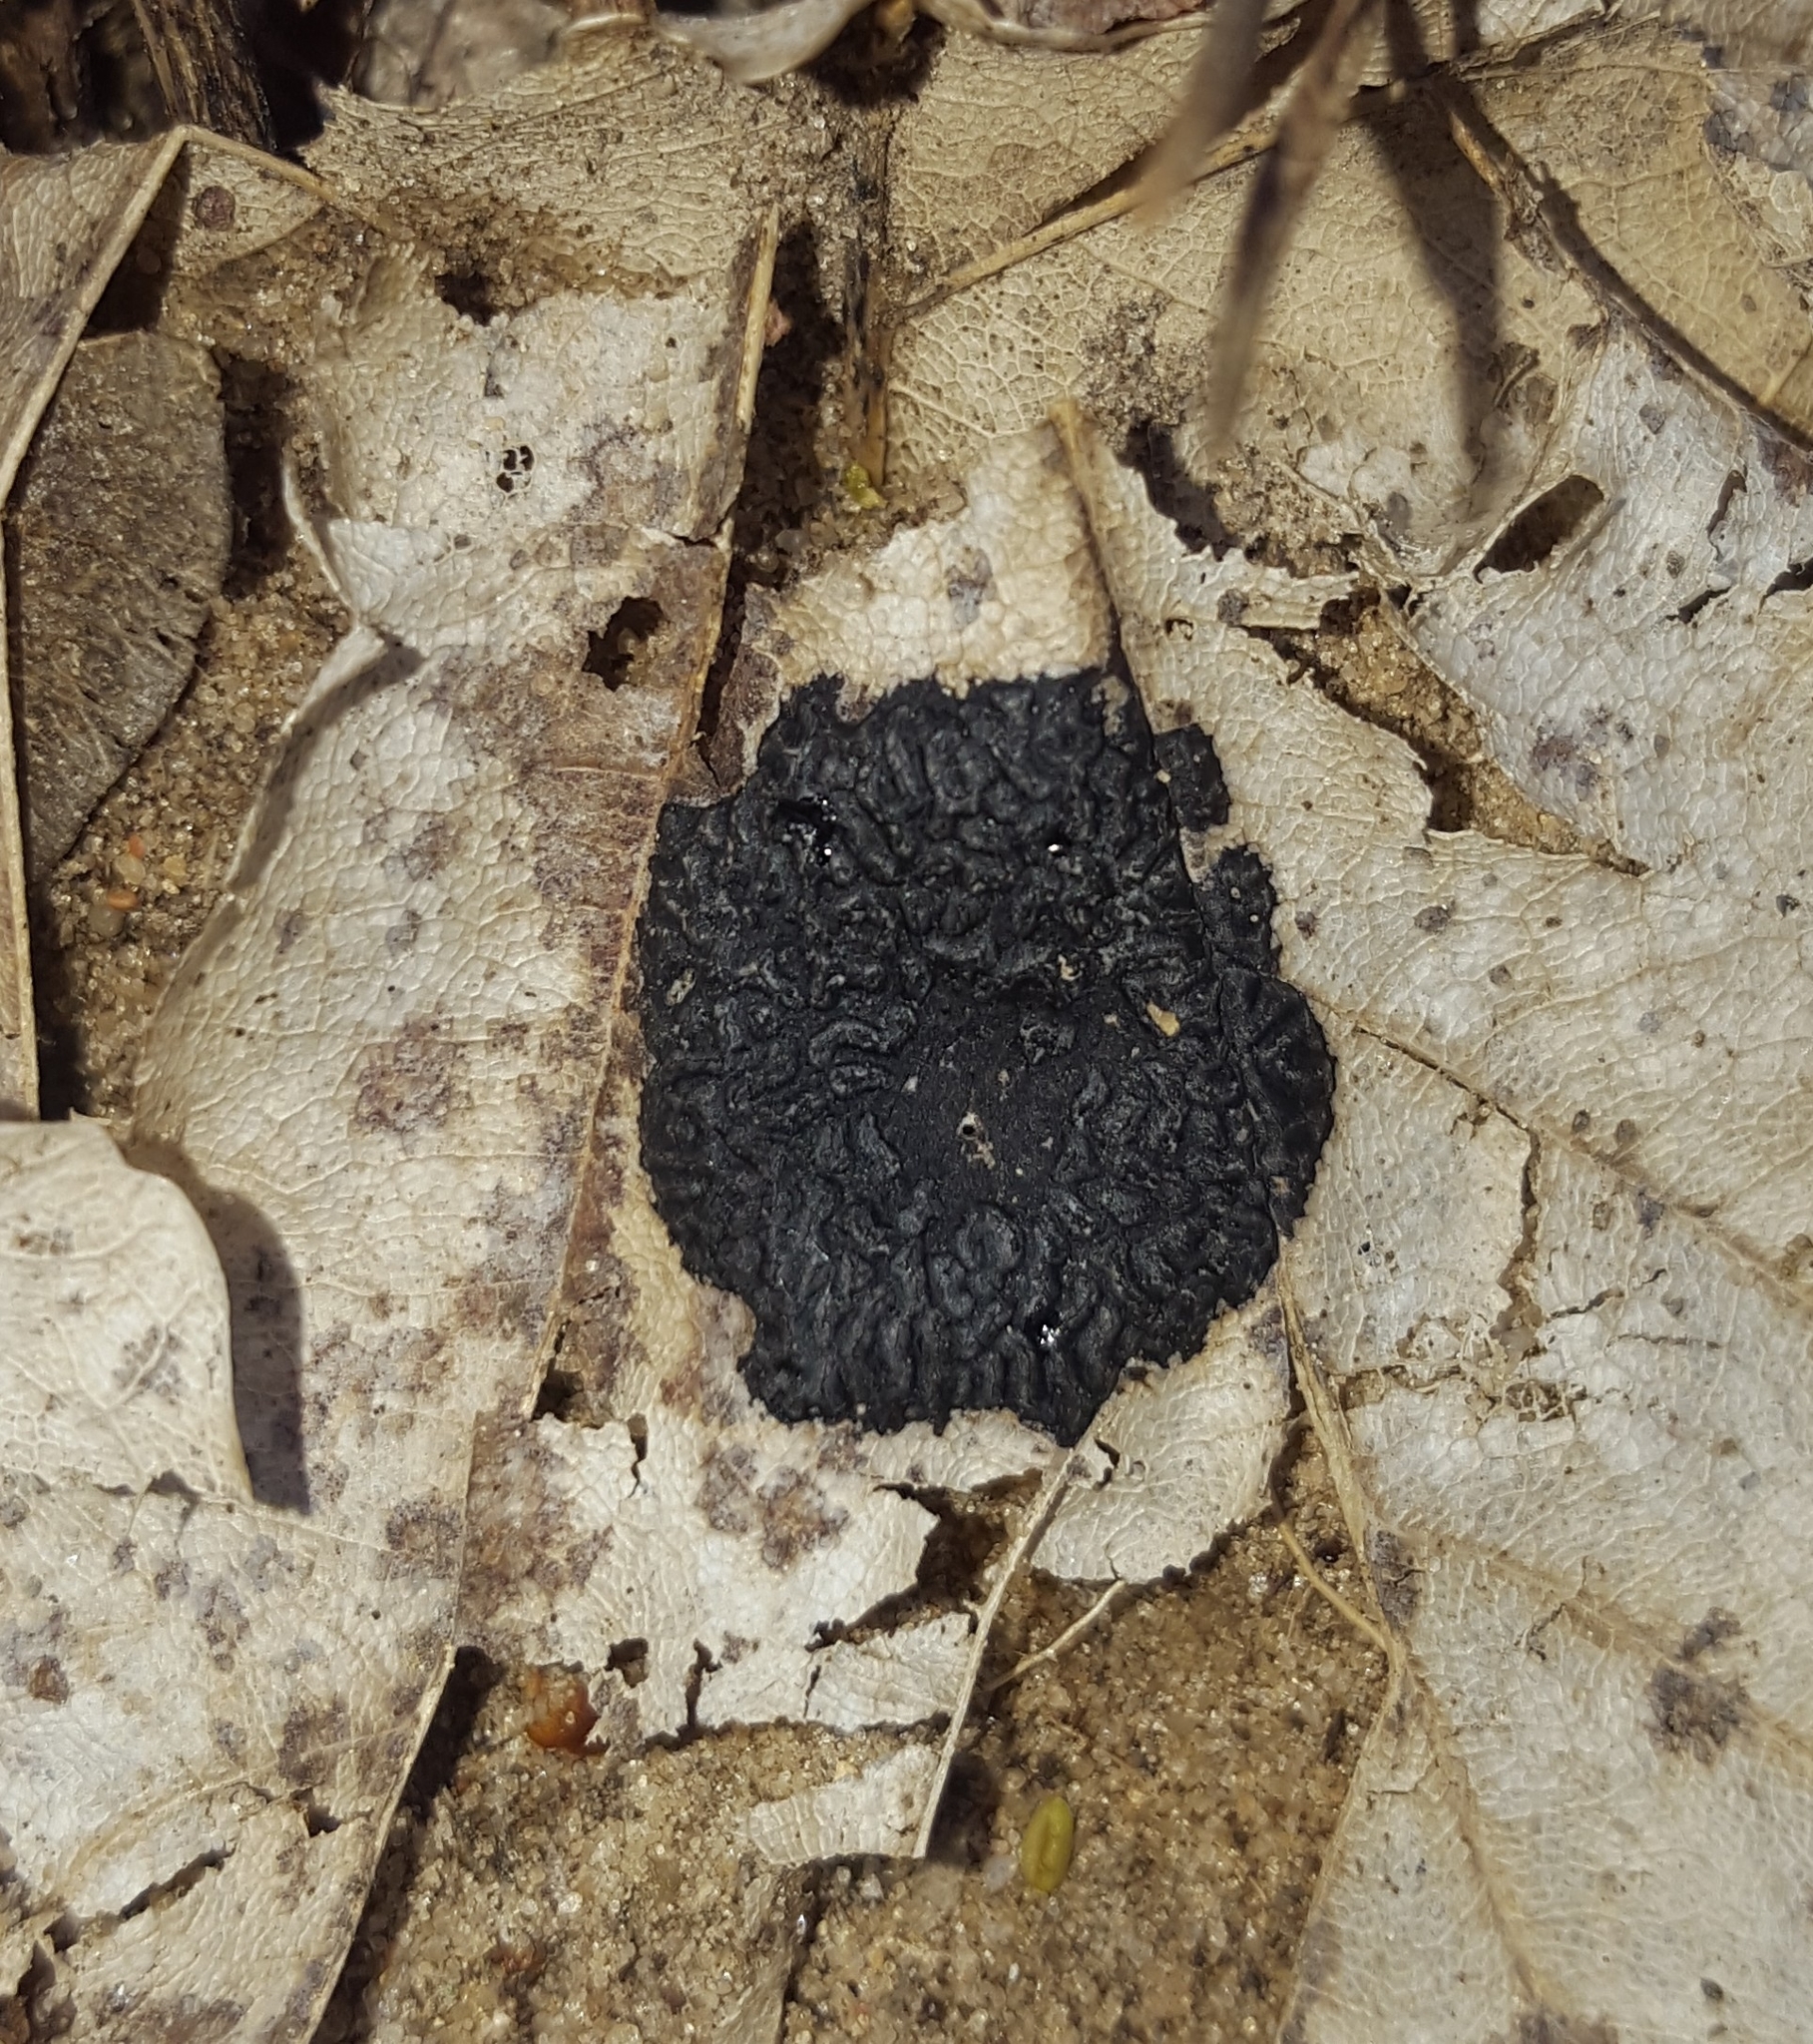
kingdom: Fungi
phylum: Ascomycota
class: Leotiomycetes
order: Rhytismatales
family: Rhytismataceae
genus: Rhytisma
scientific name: Rhytisma acerinum
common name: European tar spot
